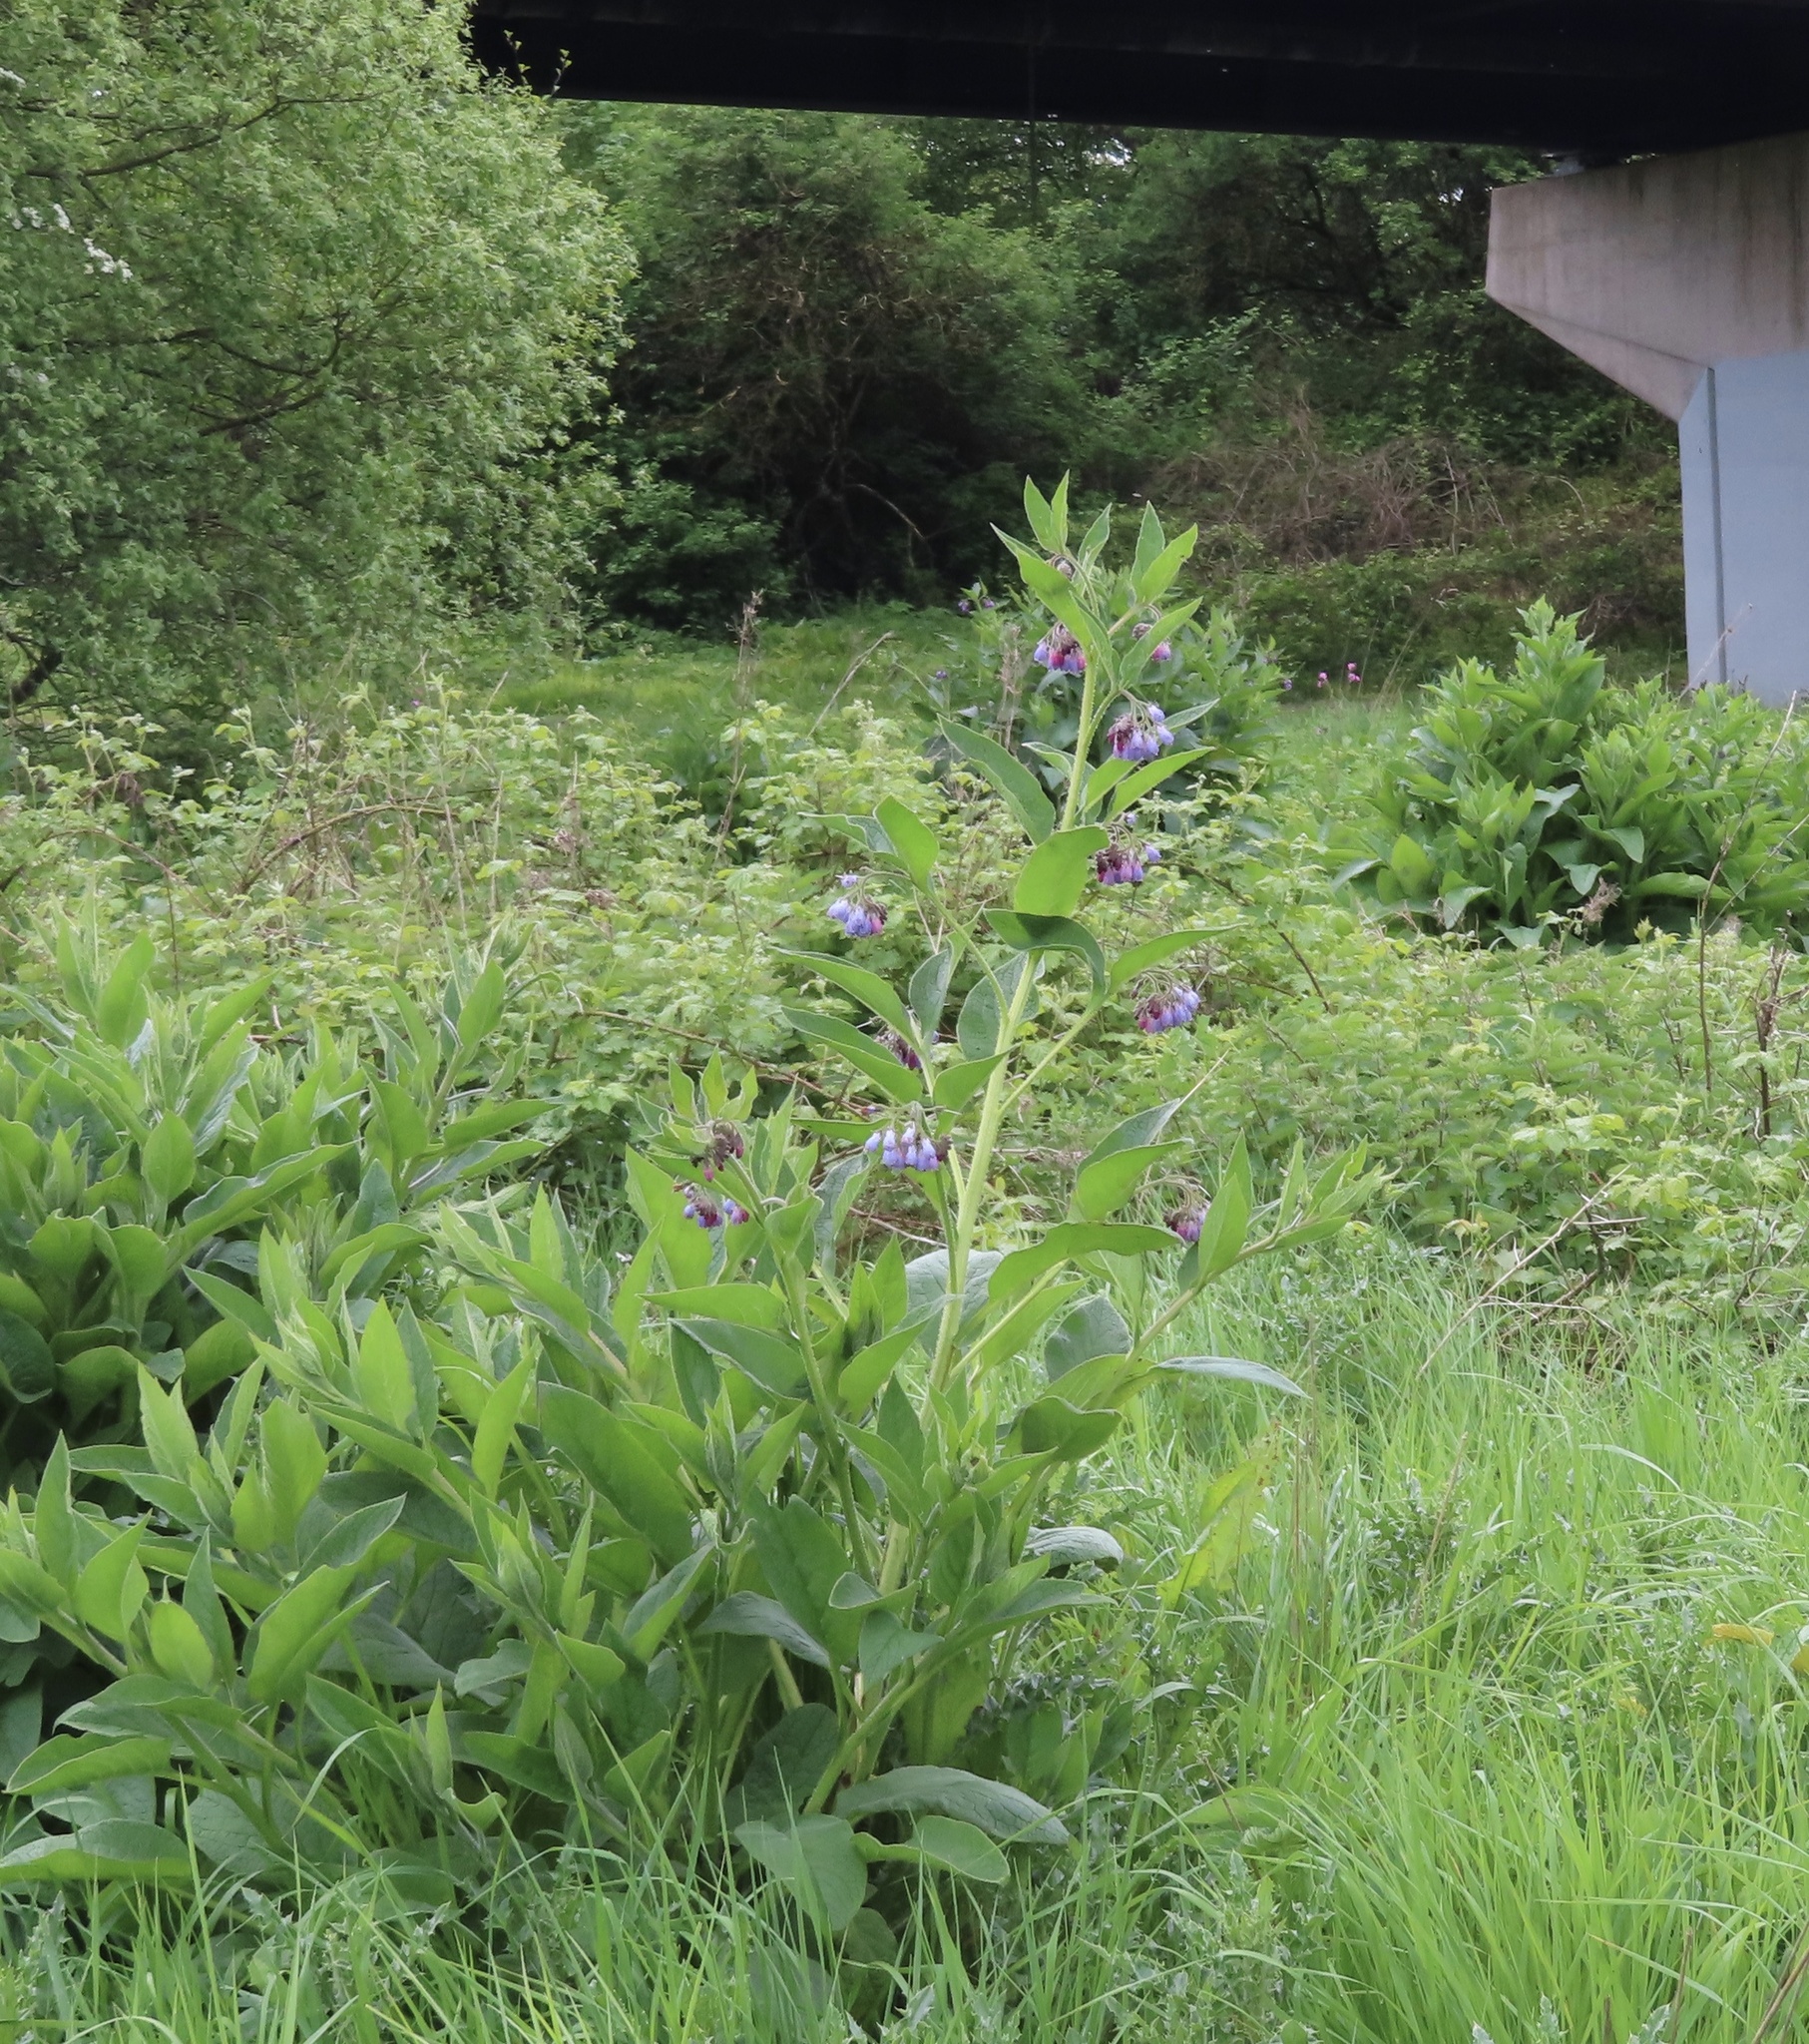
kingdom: Plantae
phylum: Tracheophyta
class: Magnoliopsida
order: Boraginales
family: Boraginaceae
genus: Symphytum
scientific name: Symphytum uplandicum
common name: Russian comfrey
